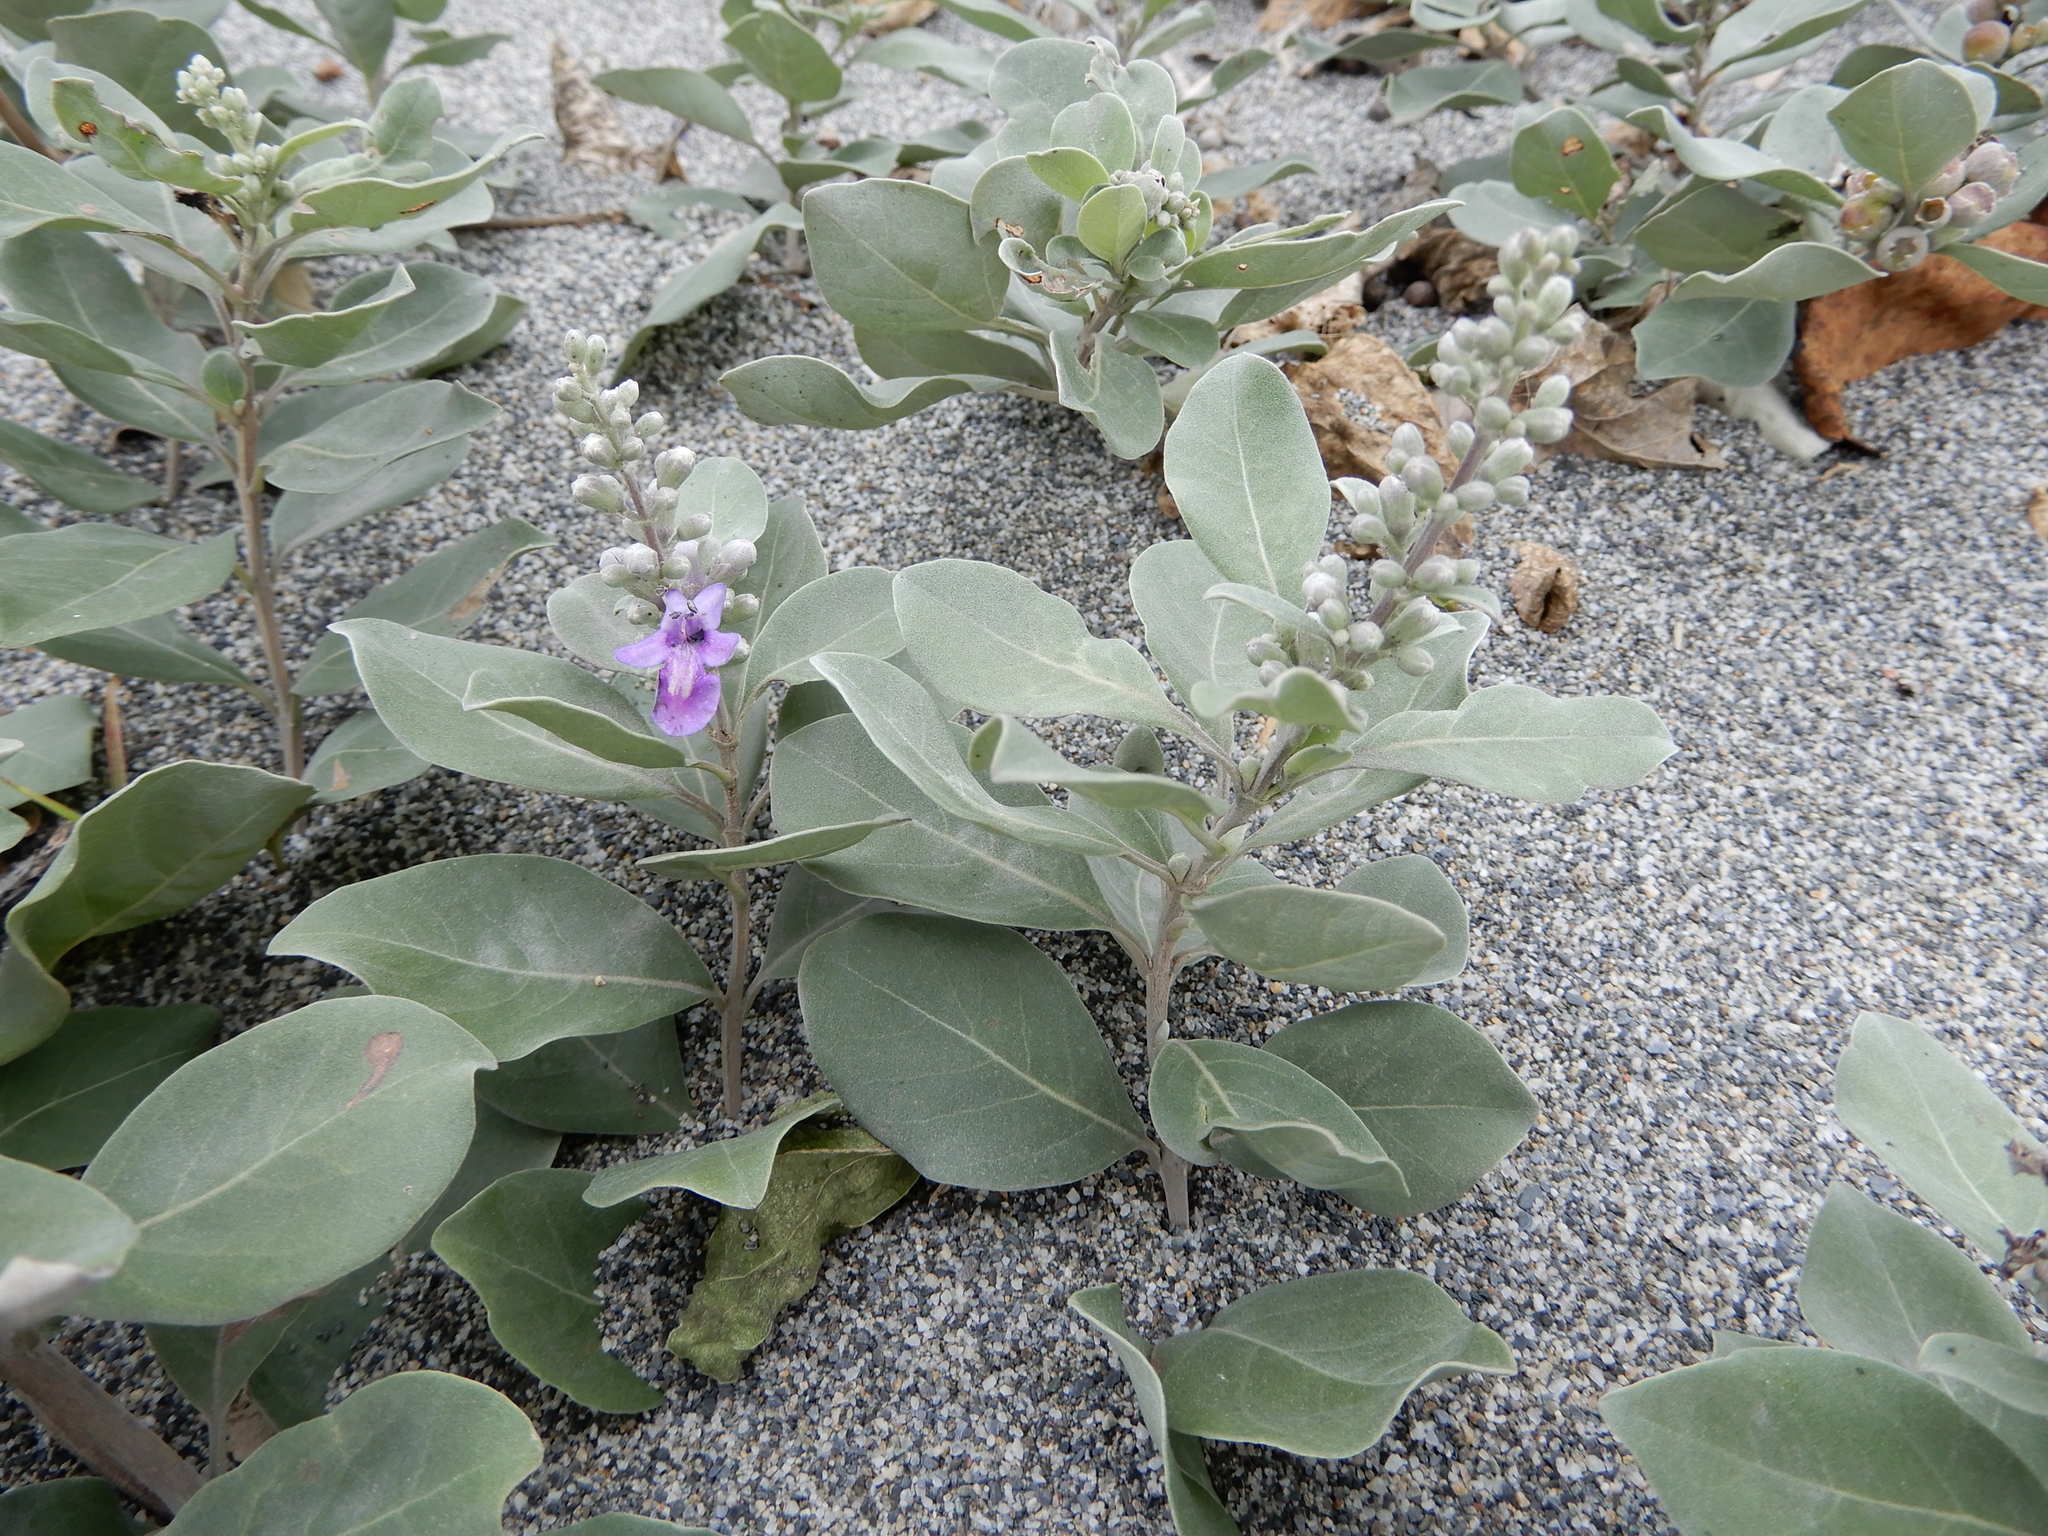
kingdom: Plantae
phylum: Tracheophyta
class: Magnoliopsida
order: Lamiales
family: Lamiaceae
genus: Vitex
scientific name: Vitex rotundifolia
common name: Beach vitex
